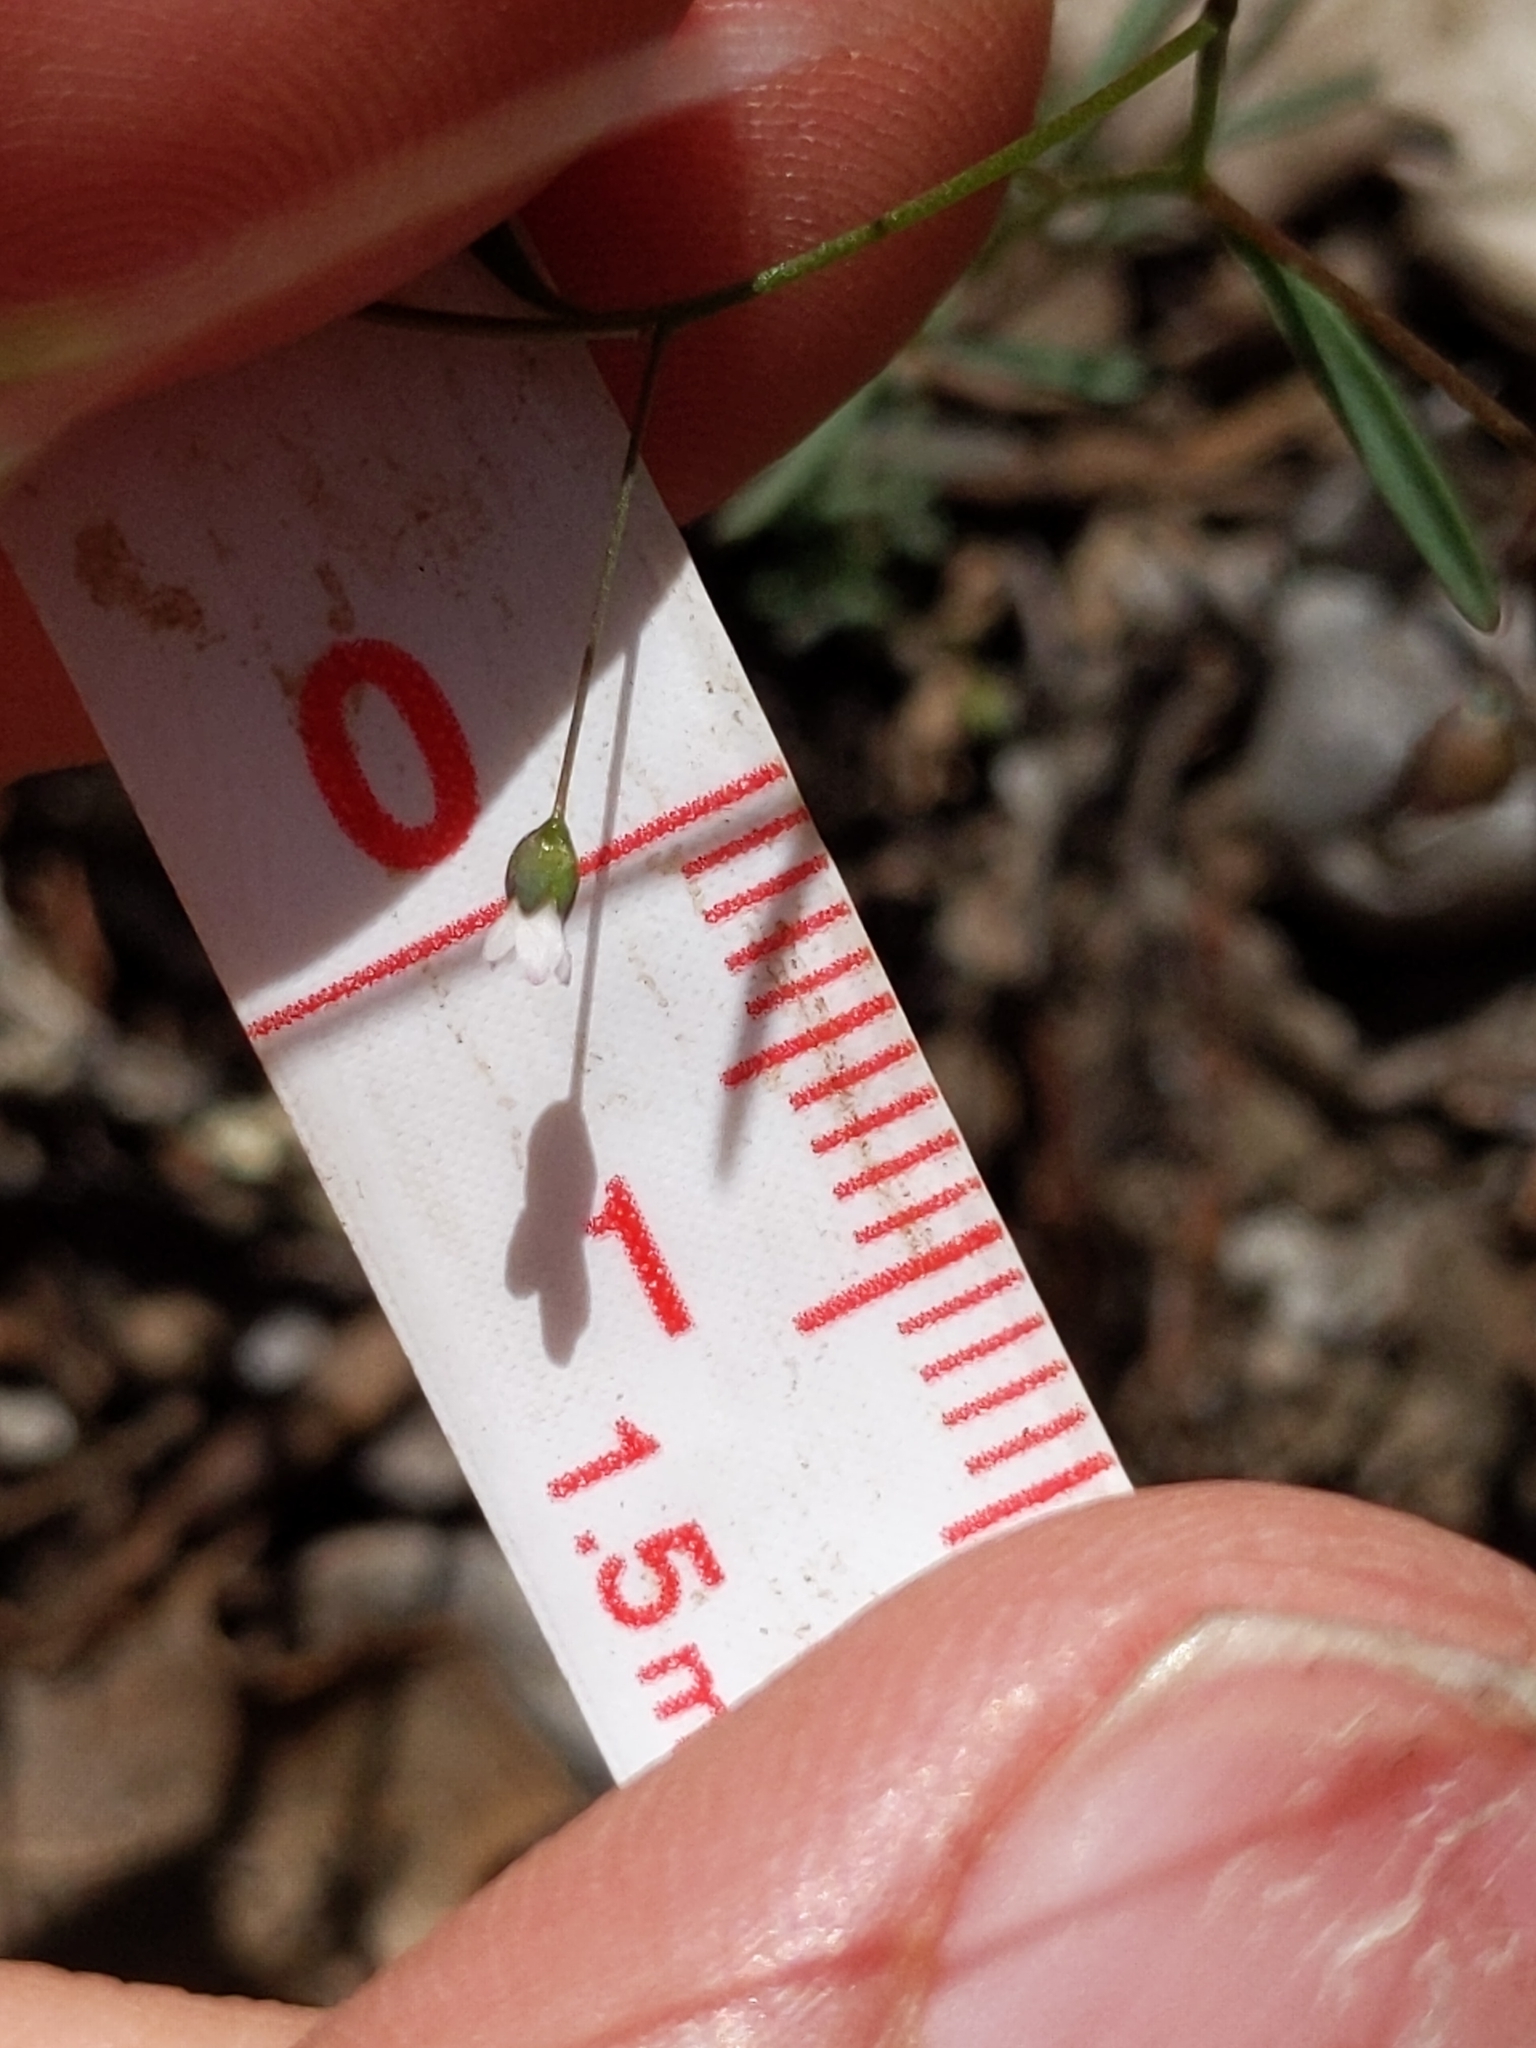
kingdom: Plantae
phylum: Tracheophyta
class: Magnoliopsida
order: Malpighiales
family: Linaceae
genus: Hesperolinon
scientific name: Hesperolinon micranthum
